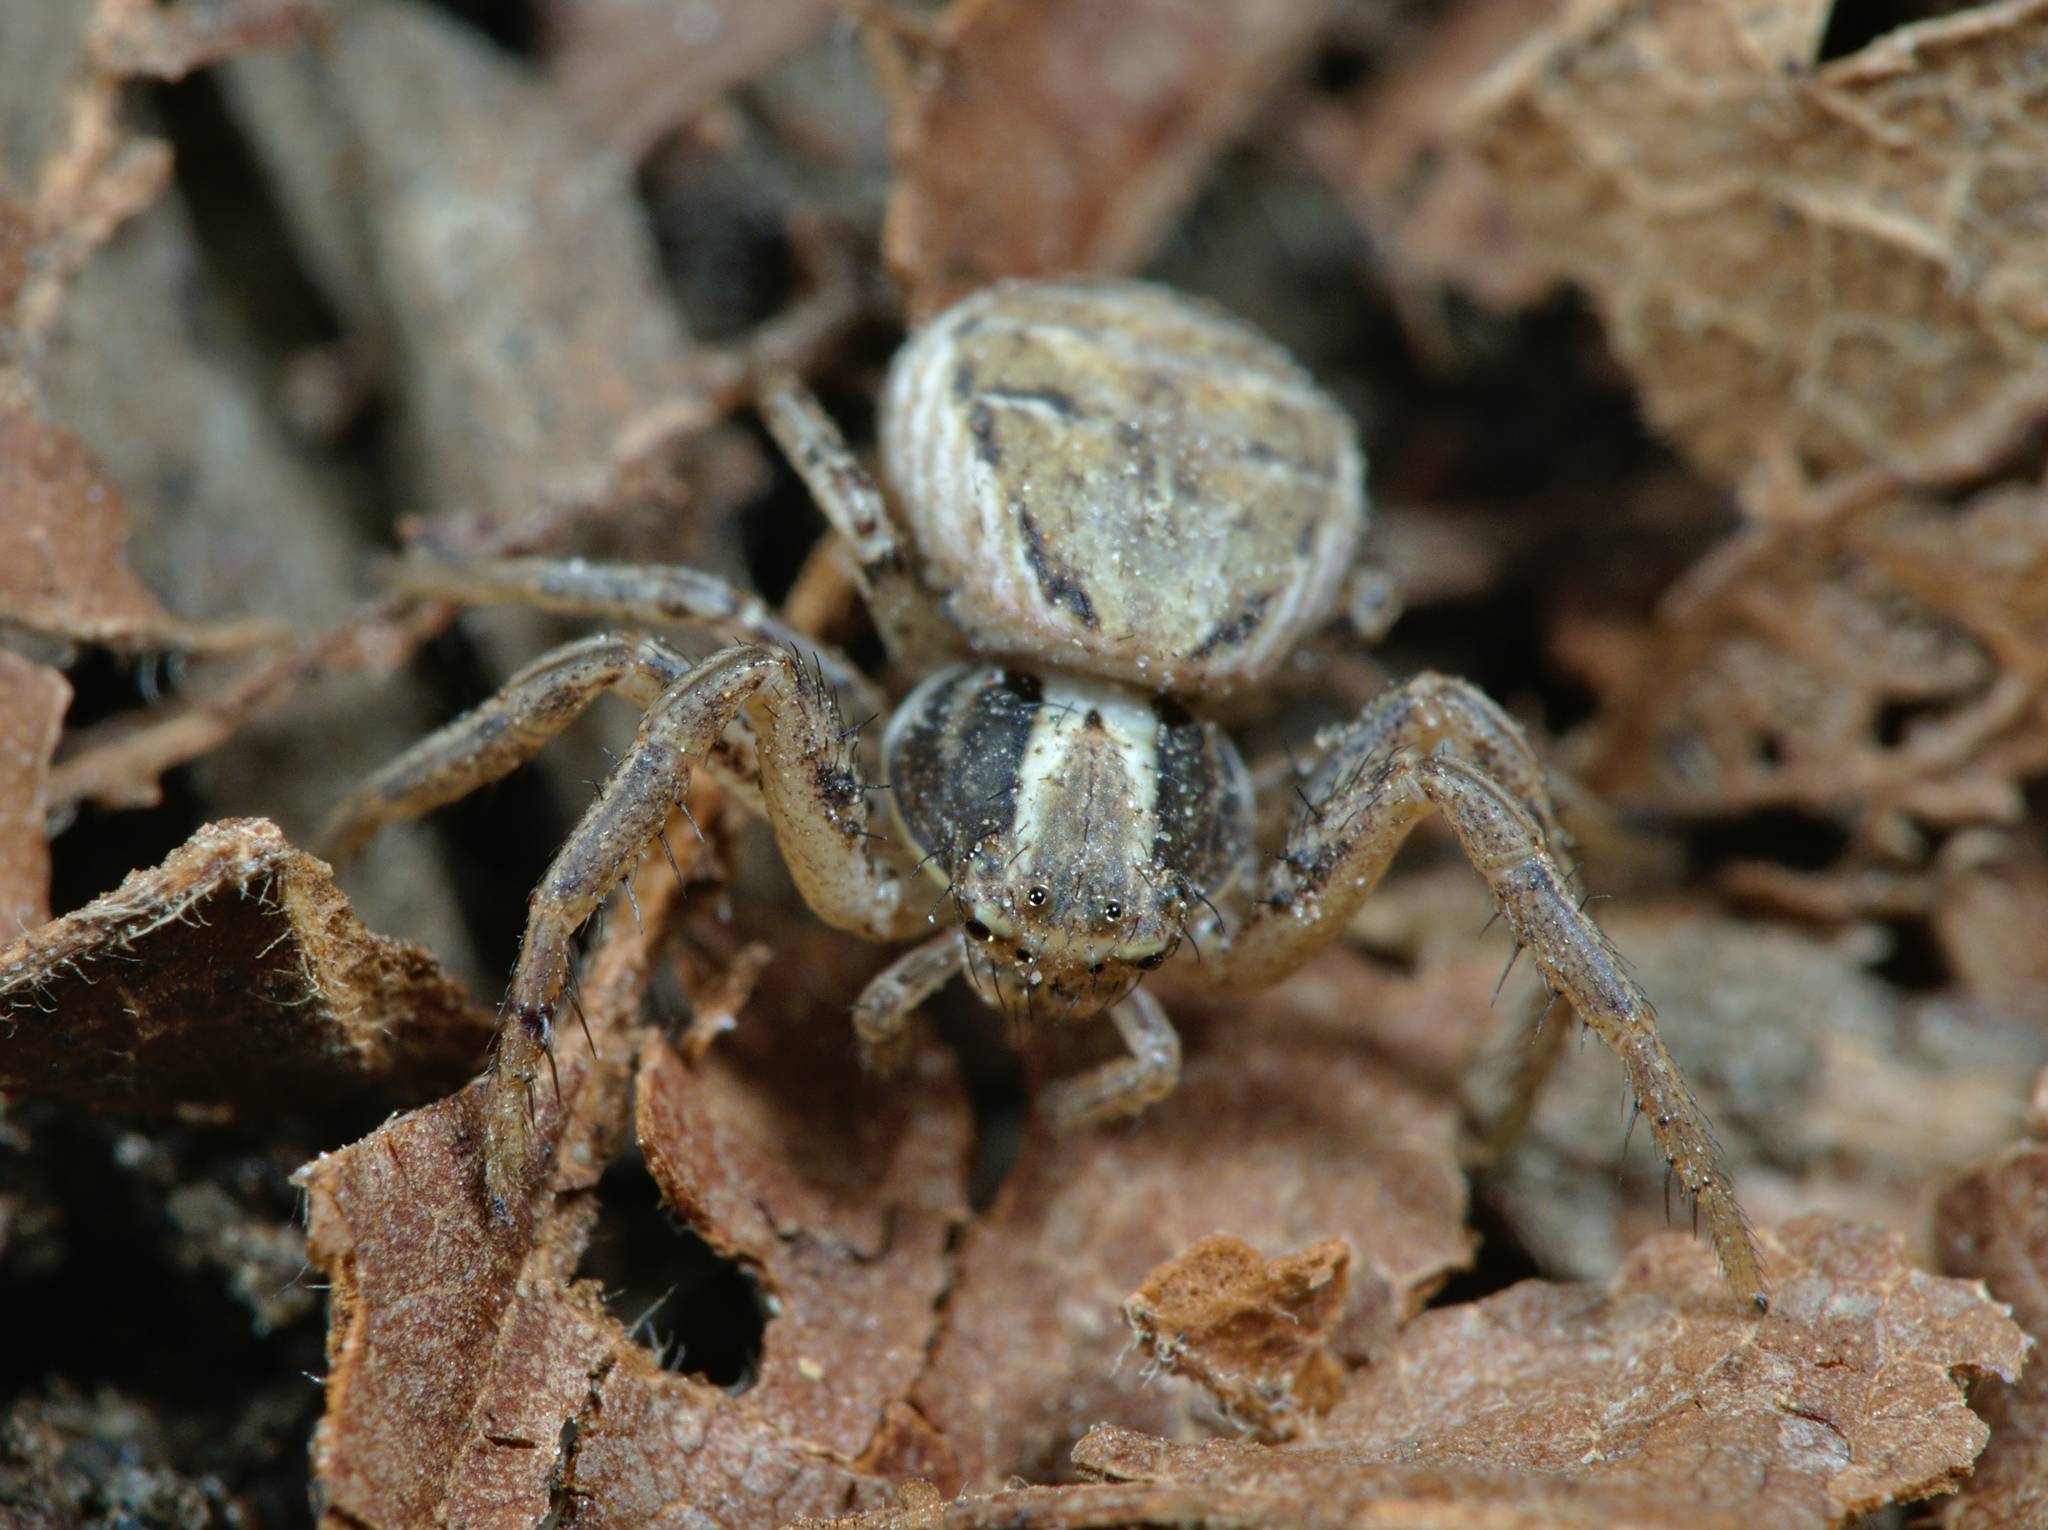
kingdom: Animalia
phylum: Arthropoda
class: Arachnida
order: Araneae
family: Thomisidae
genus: Xysticus
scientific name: Xysticus
